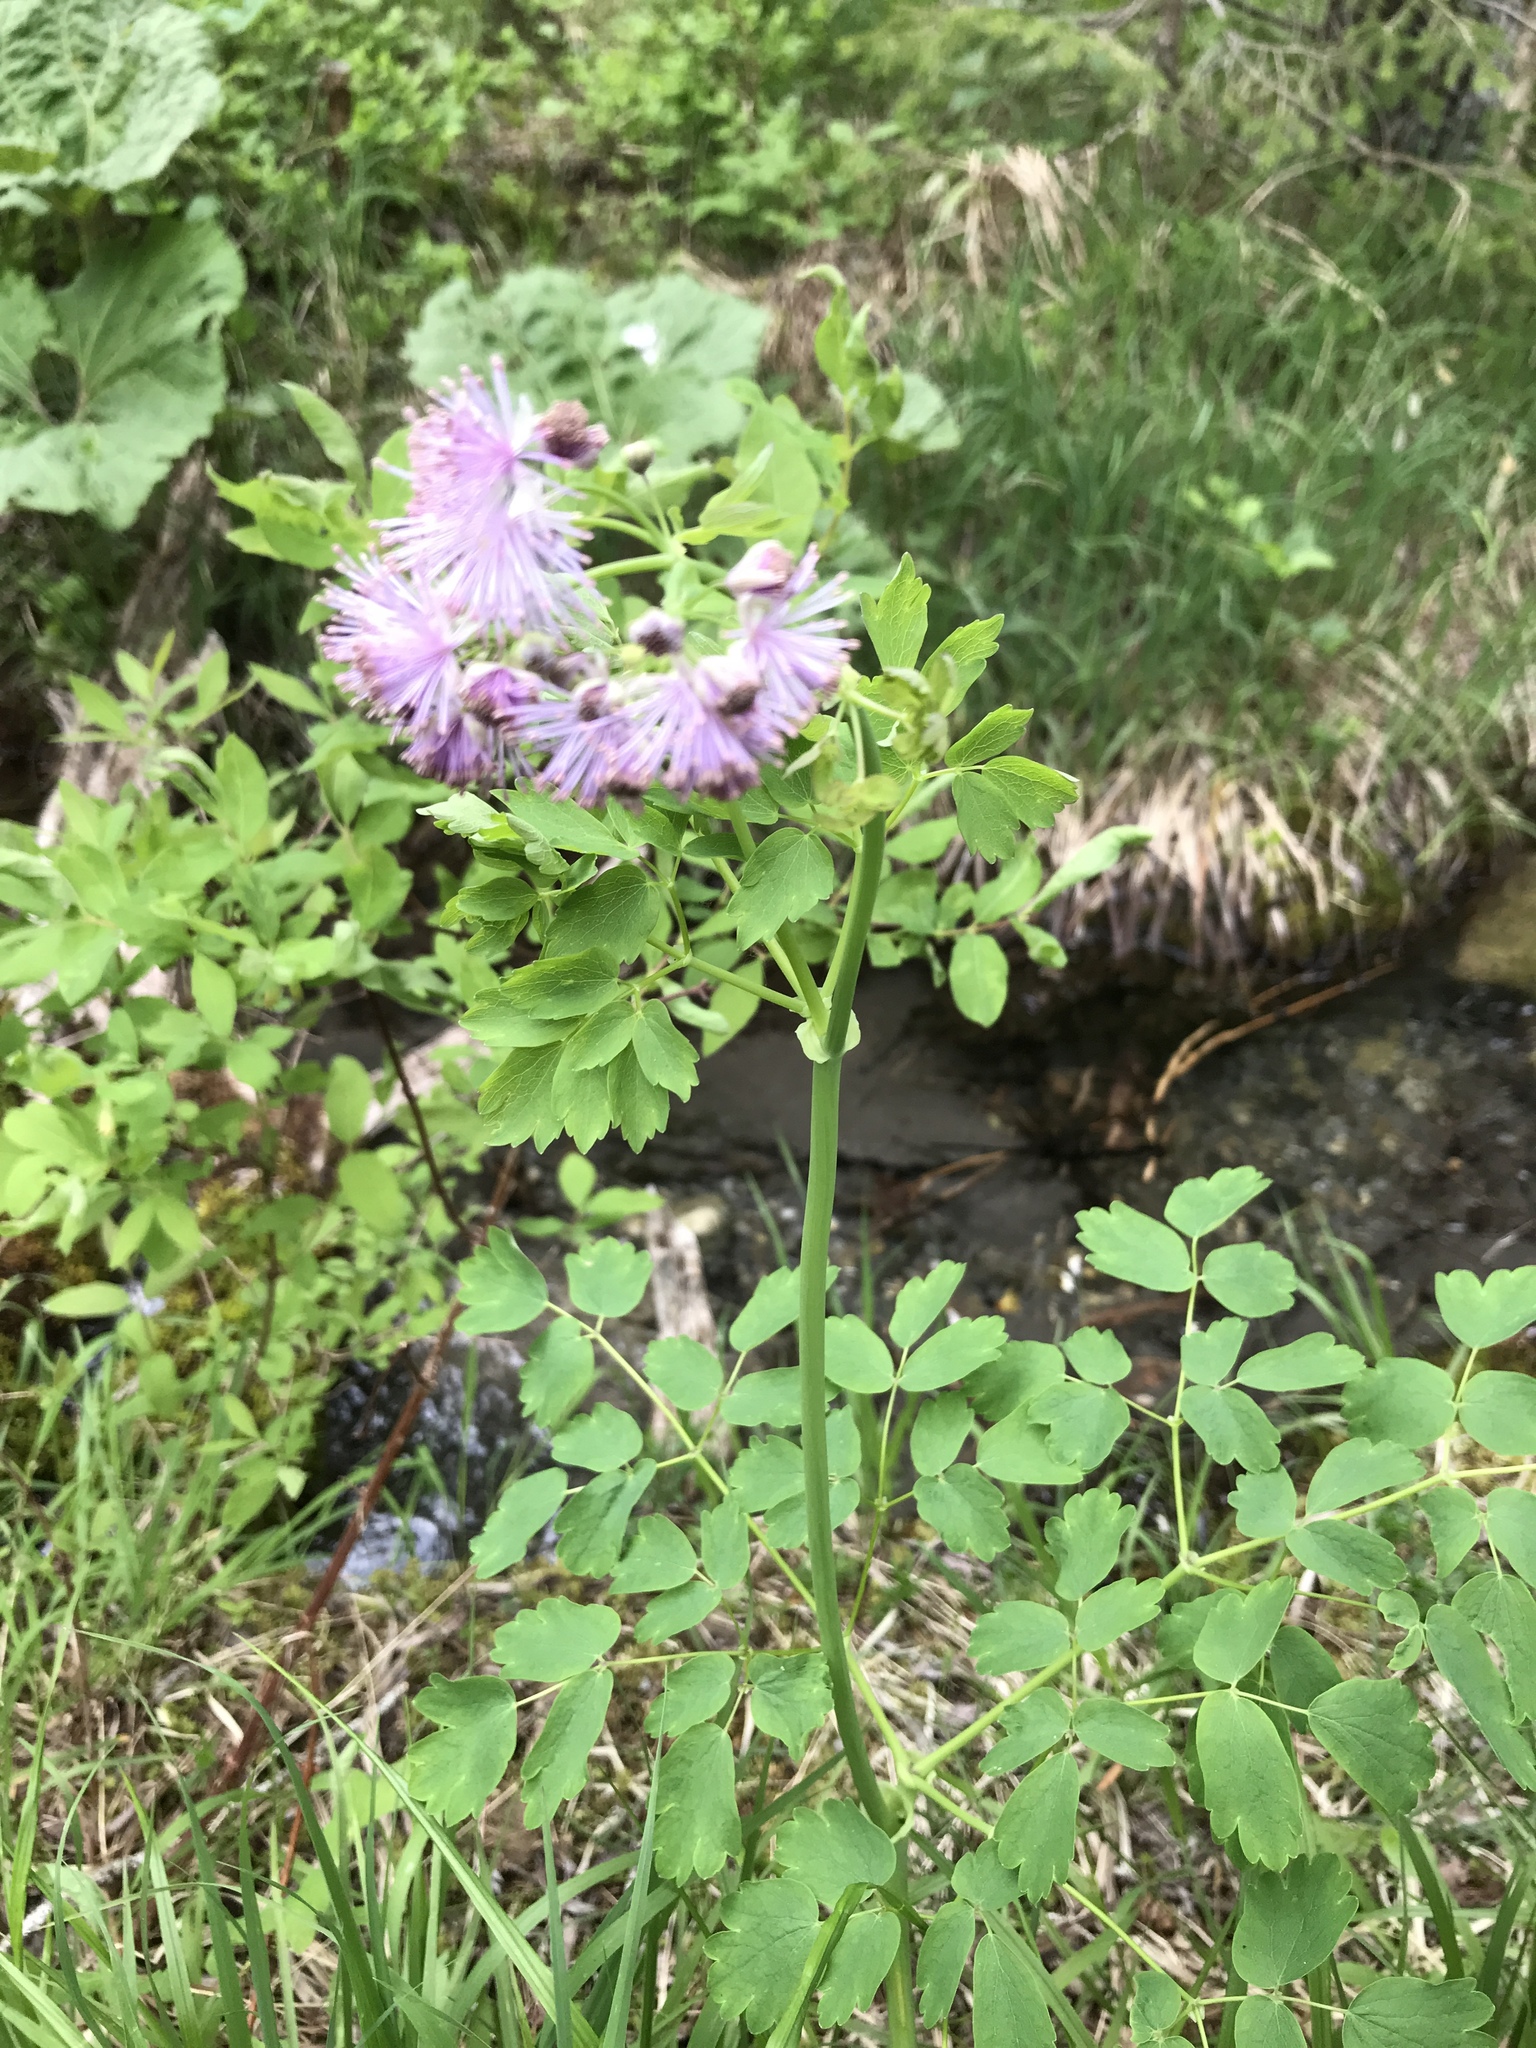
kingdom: Plantae
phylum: Tracheophyta
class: Magnoliopsida
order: Ranunculales
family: Ranunculaceae
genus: Thalictrum
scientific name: Thalictrum aquilegiifolium
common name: French meadow-rue
